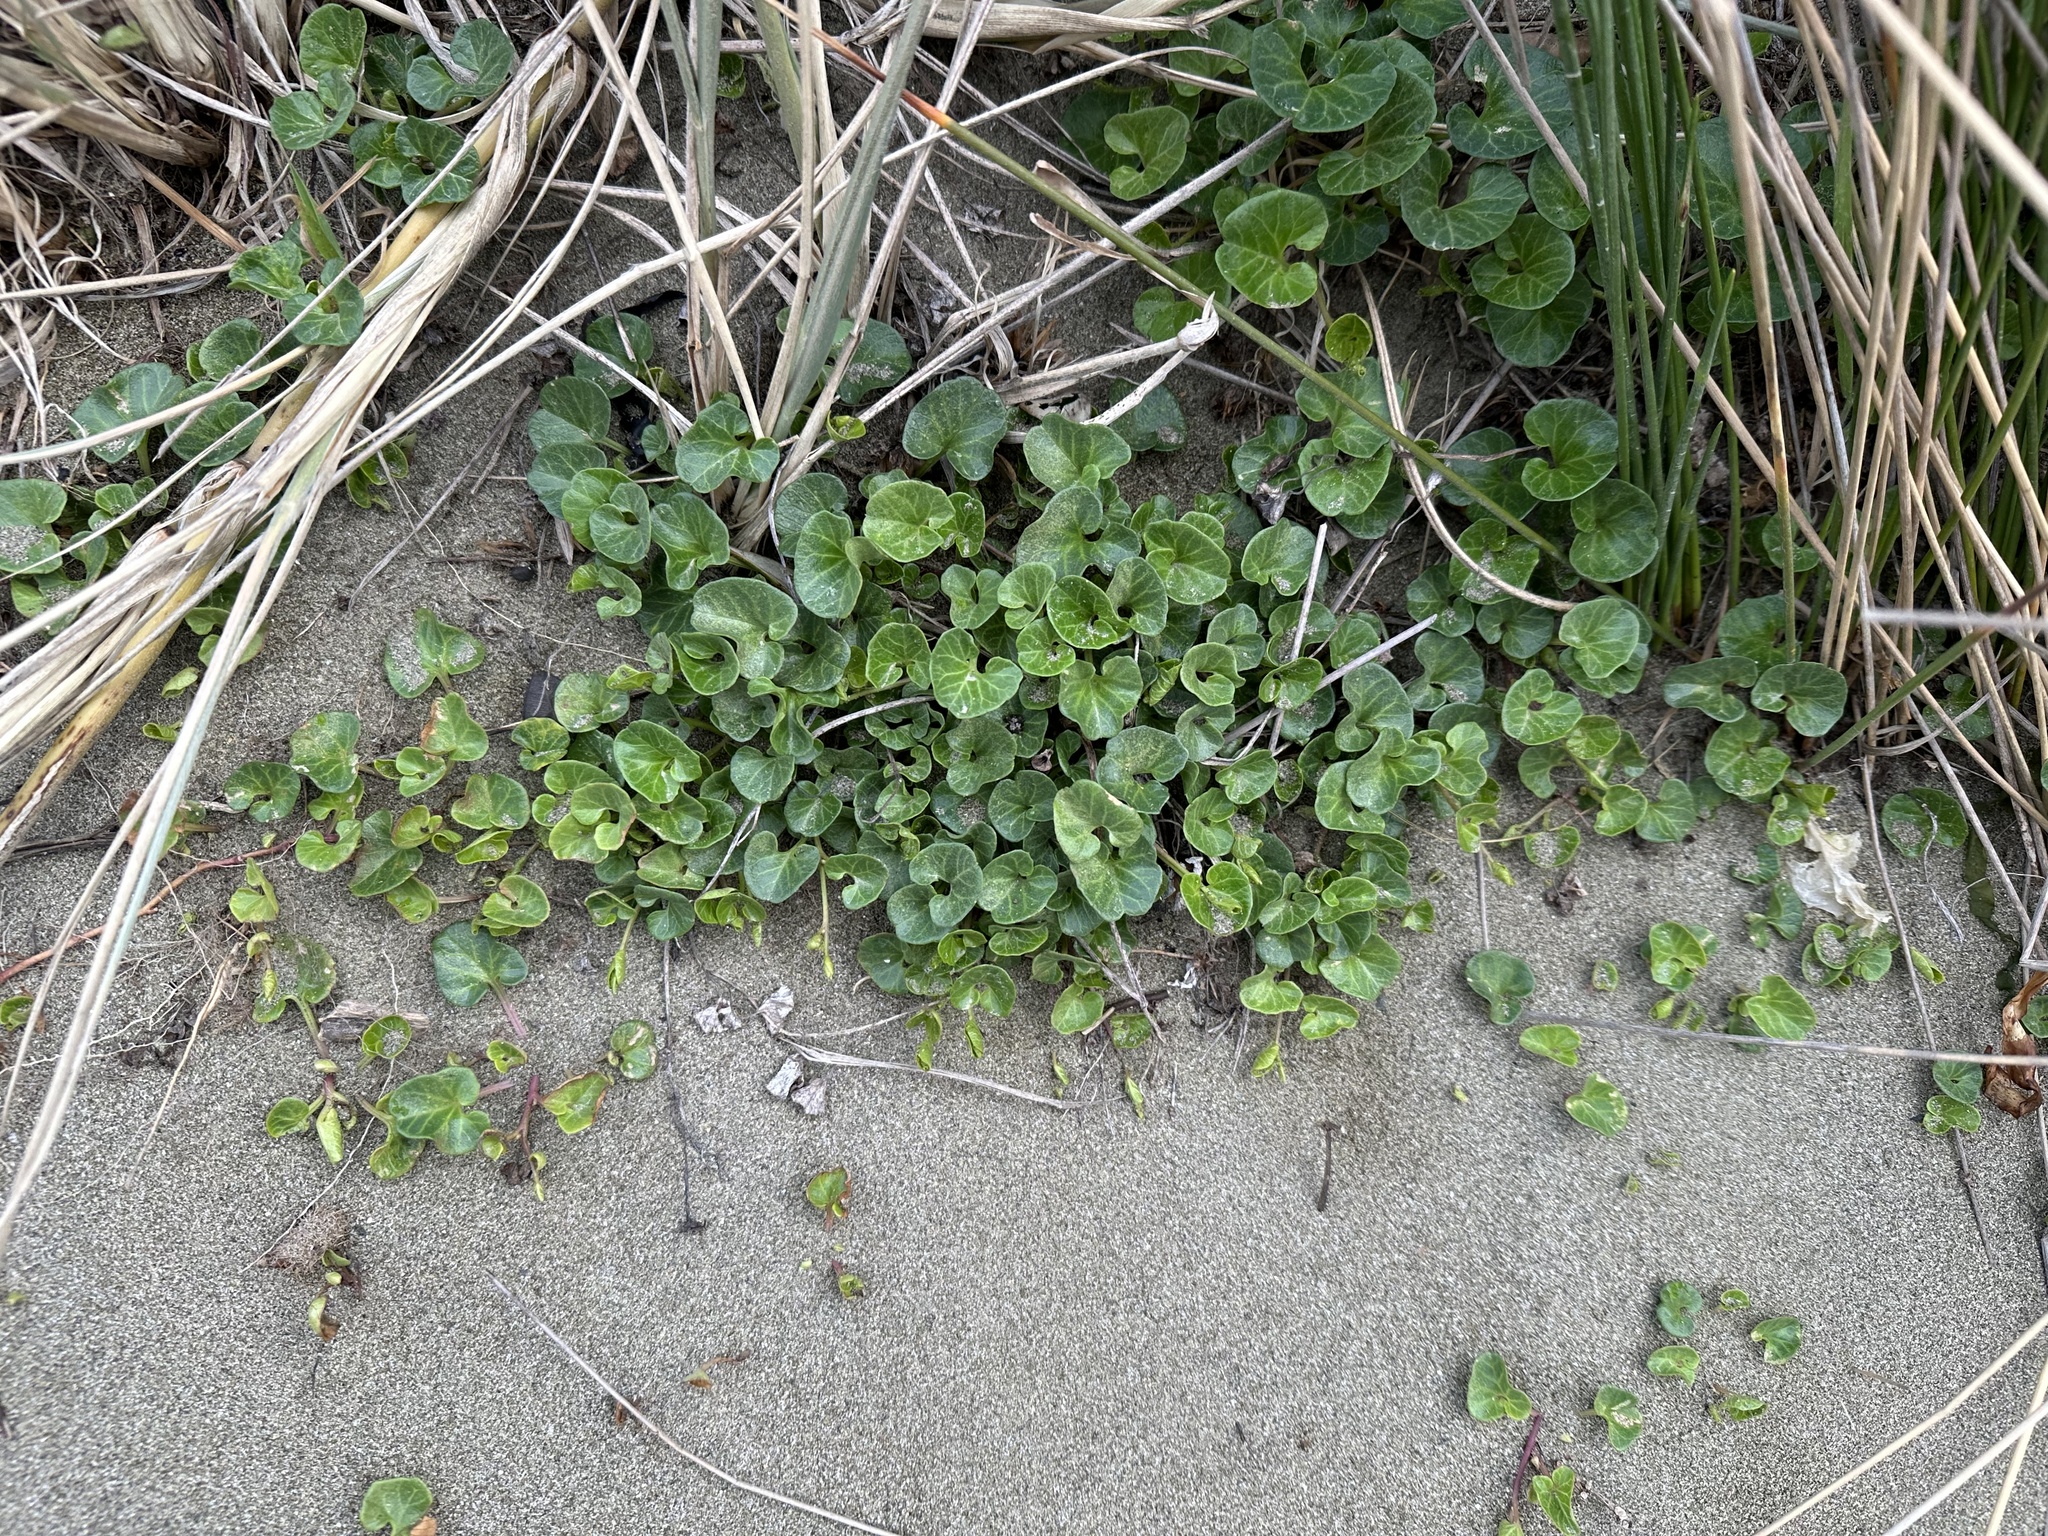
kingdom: Plantae
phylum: Tracheophyta
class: Magnoliopsida
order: Solanales
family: Convolvulaceae
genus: Calystegia
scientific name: Calystegia soldanella
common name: Sea bindweed
